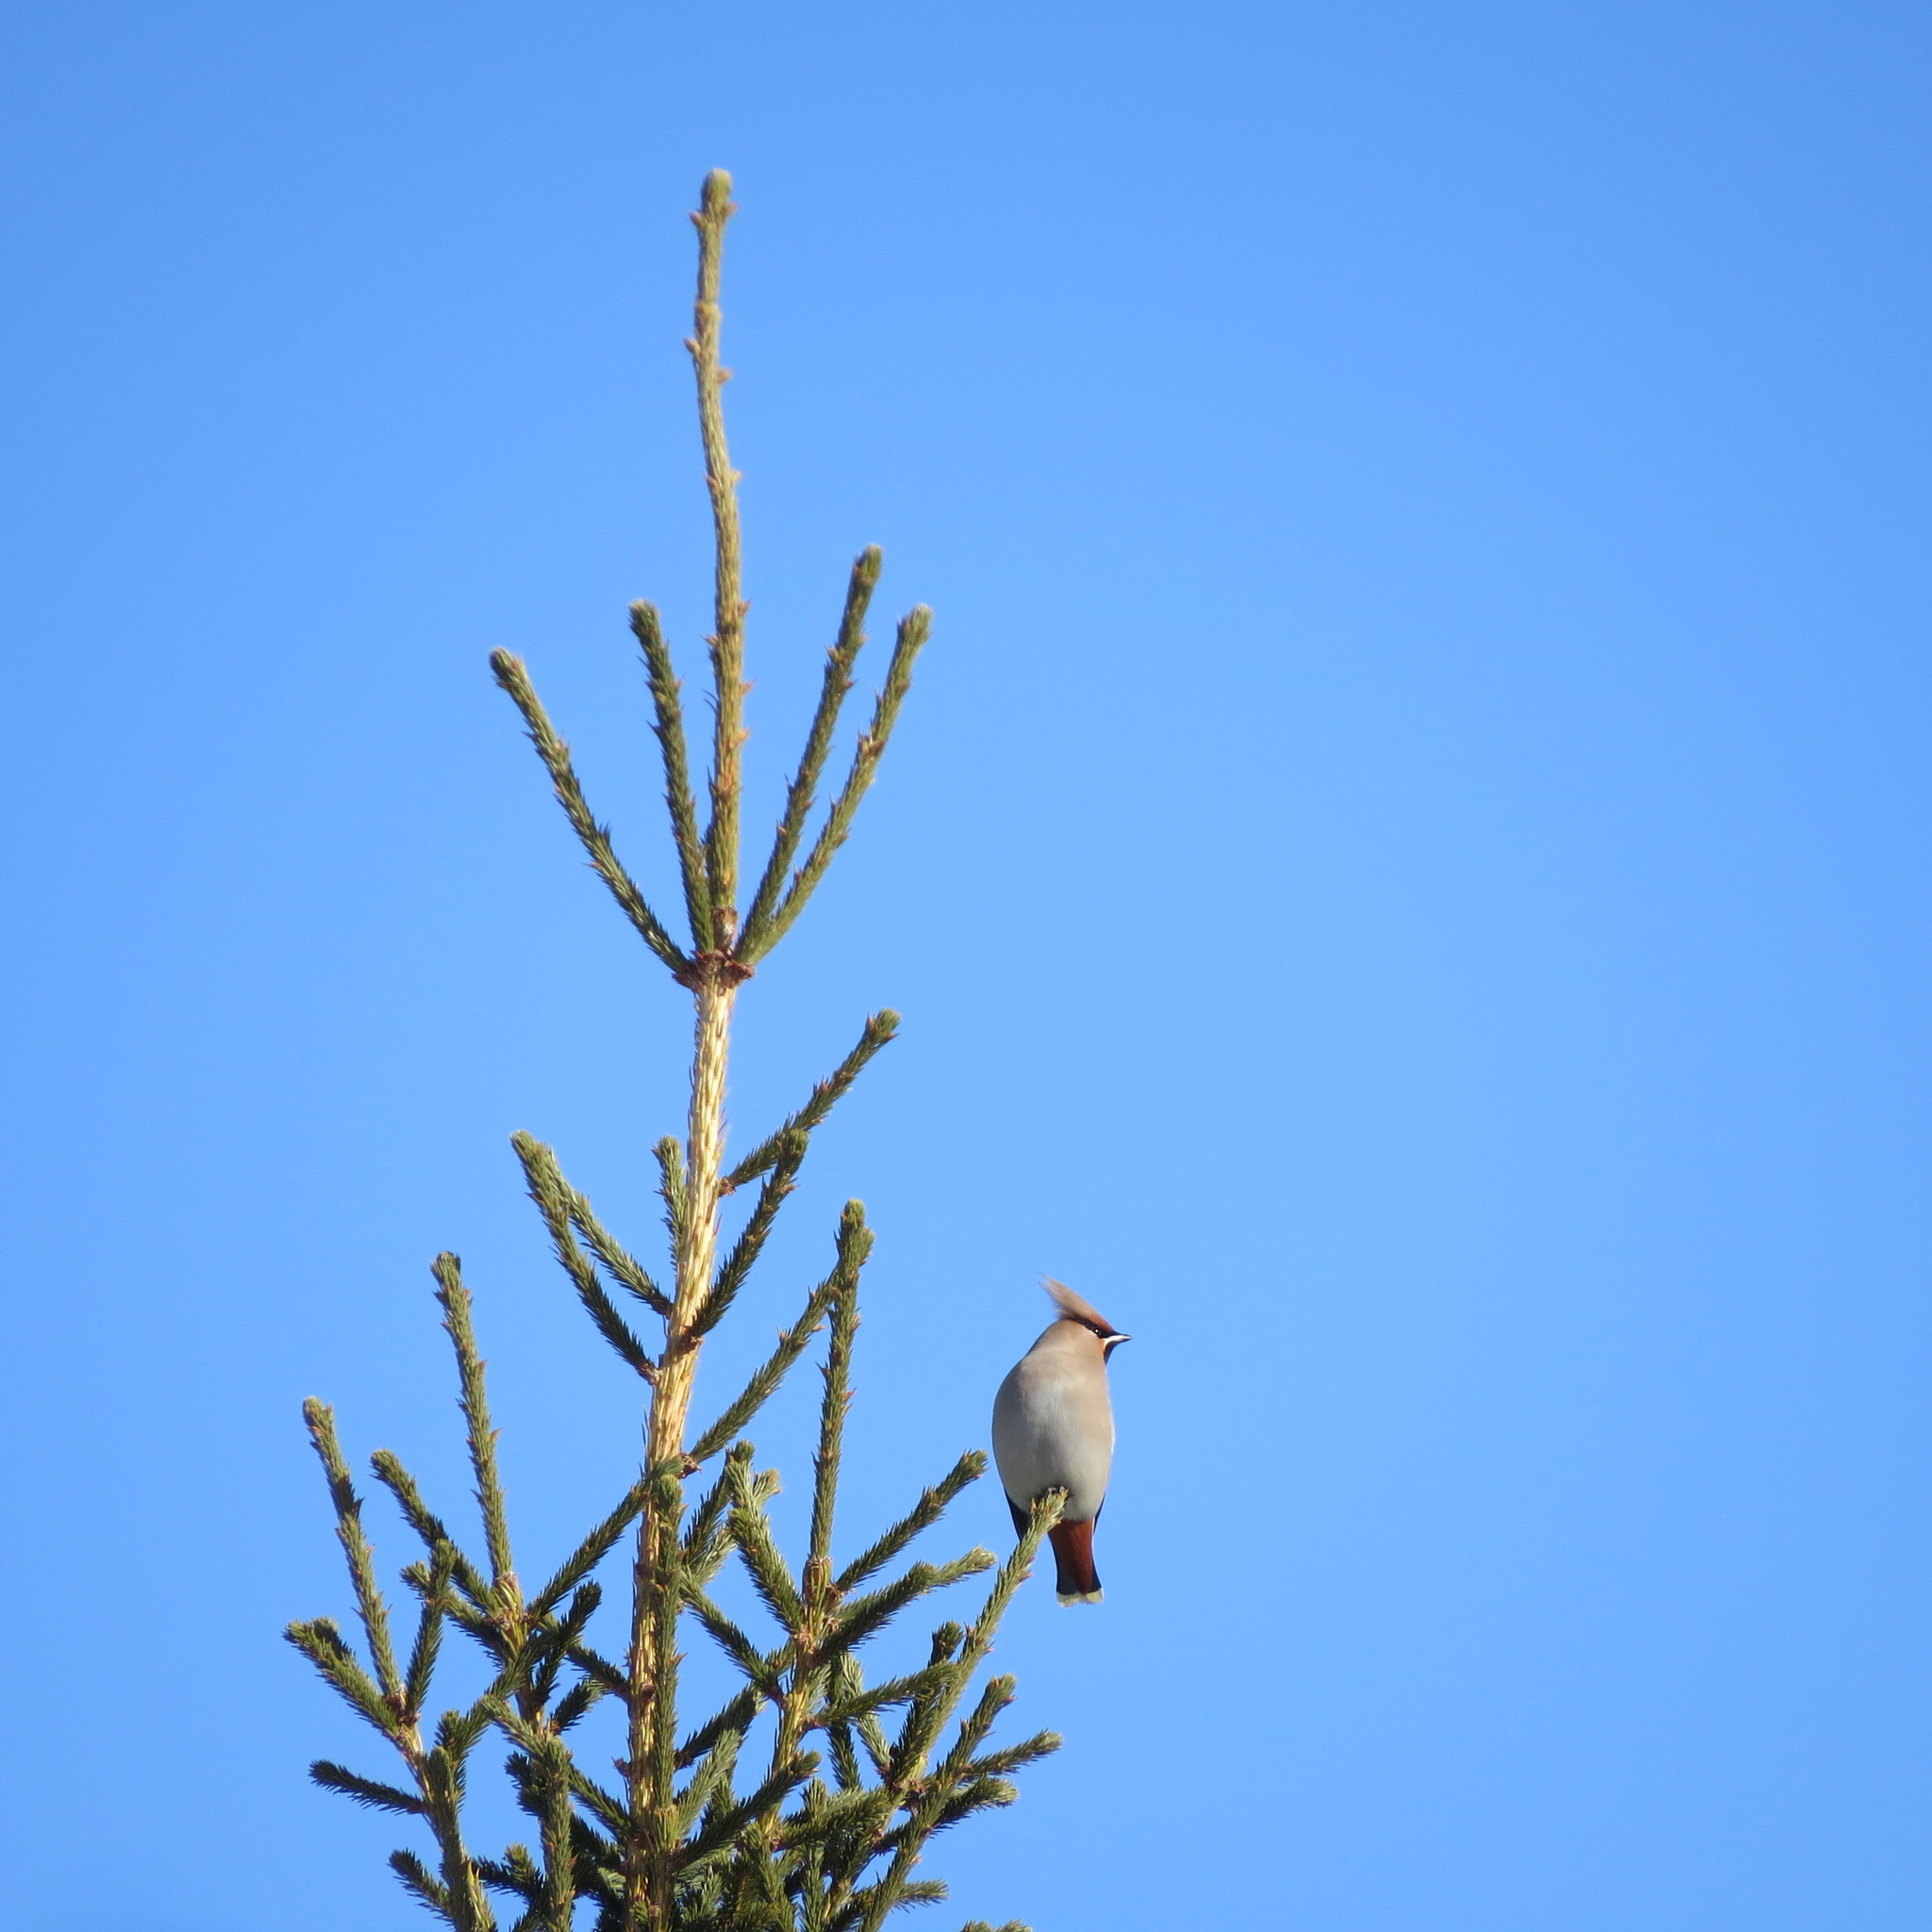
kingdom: Animalia
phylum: Chordata
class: Aves
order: Passeriformes
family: Bombycillidae
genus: Bombycilla
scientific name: Bombycilla garrulus
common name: Bohemian waxwing
